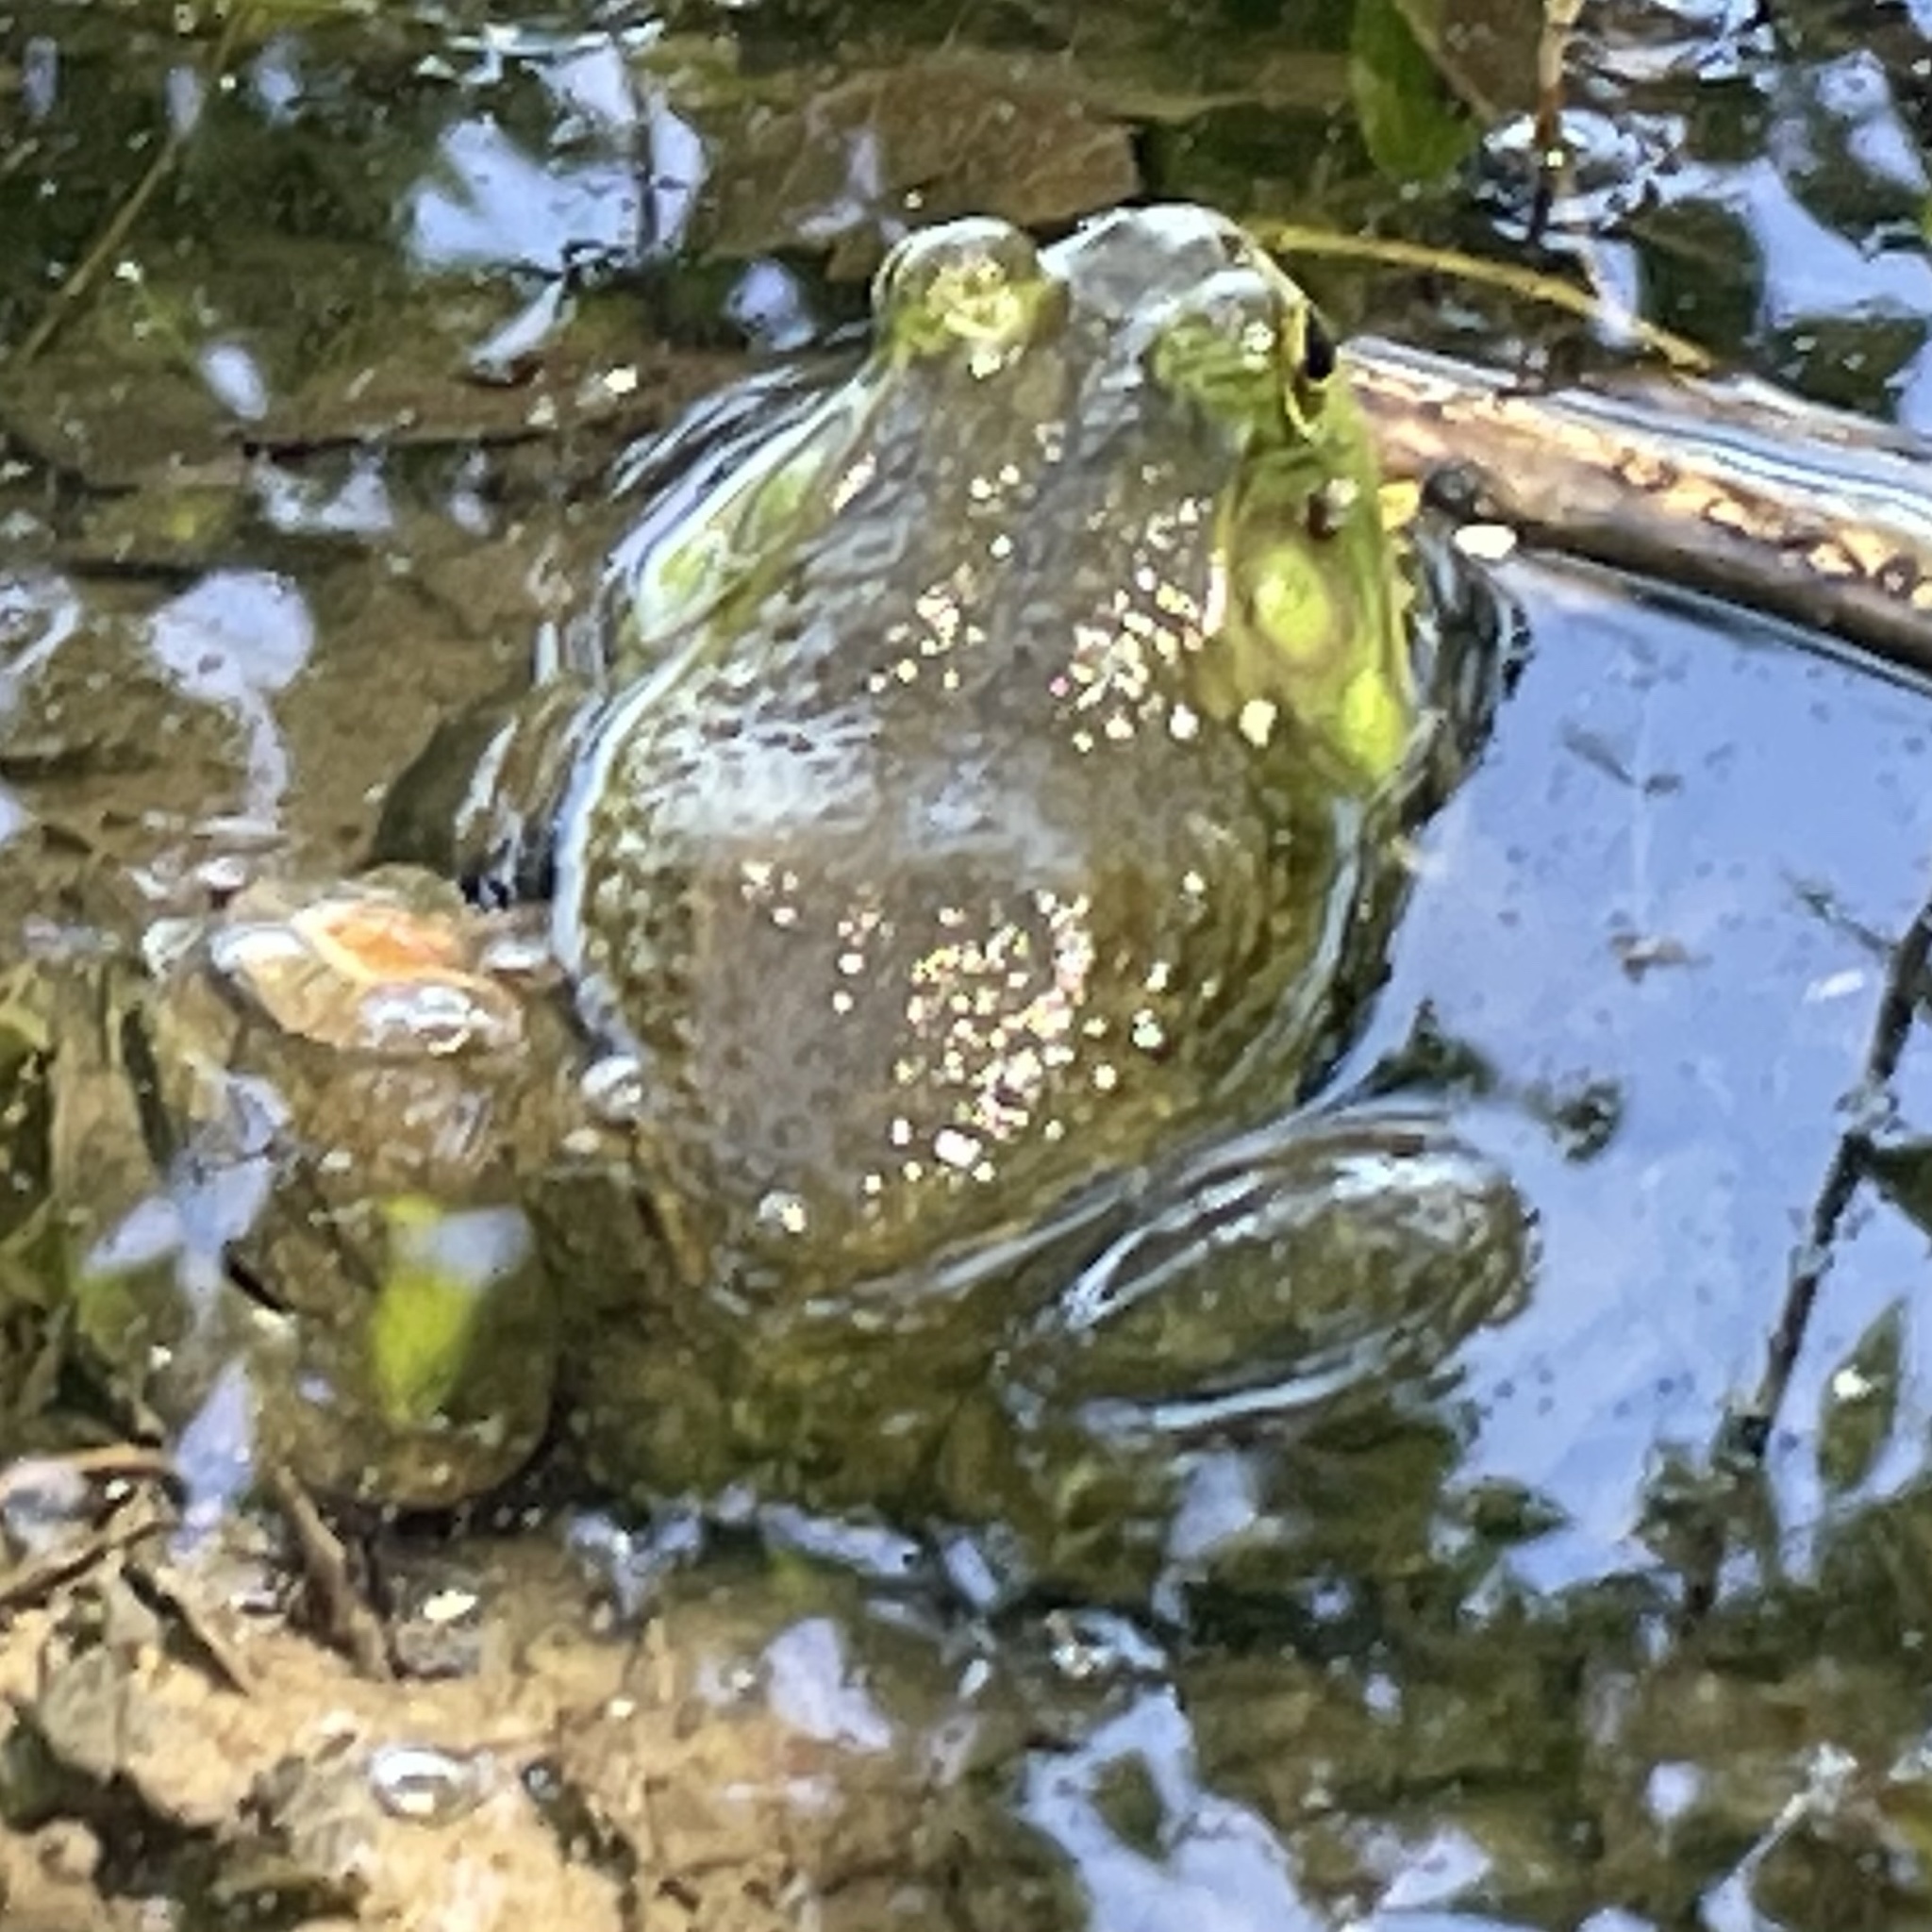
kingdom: Animalia
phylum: Chordata
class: Amphibia
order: Anura
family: Ranidae
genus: Lithobates
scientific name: Lithobates catesbeianus
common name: American bullfrog
